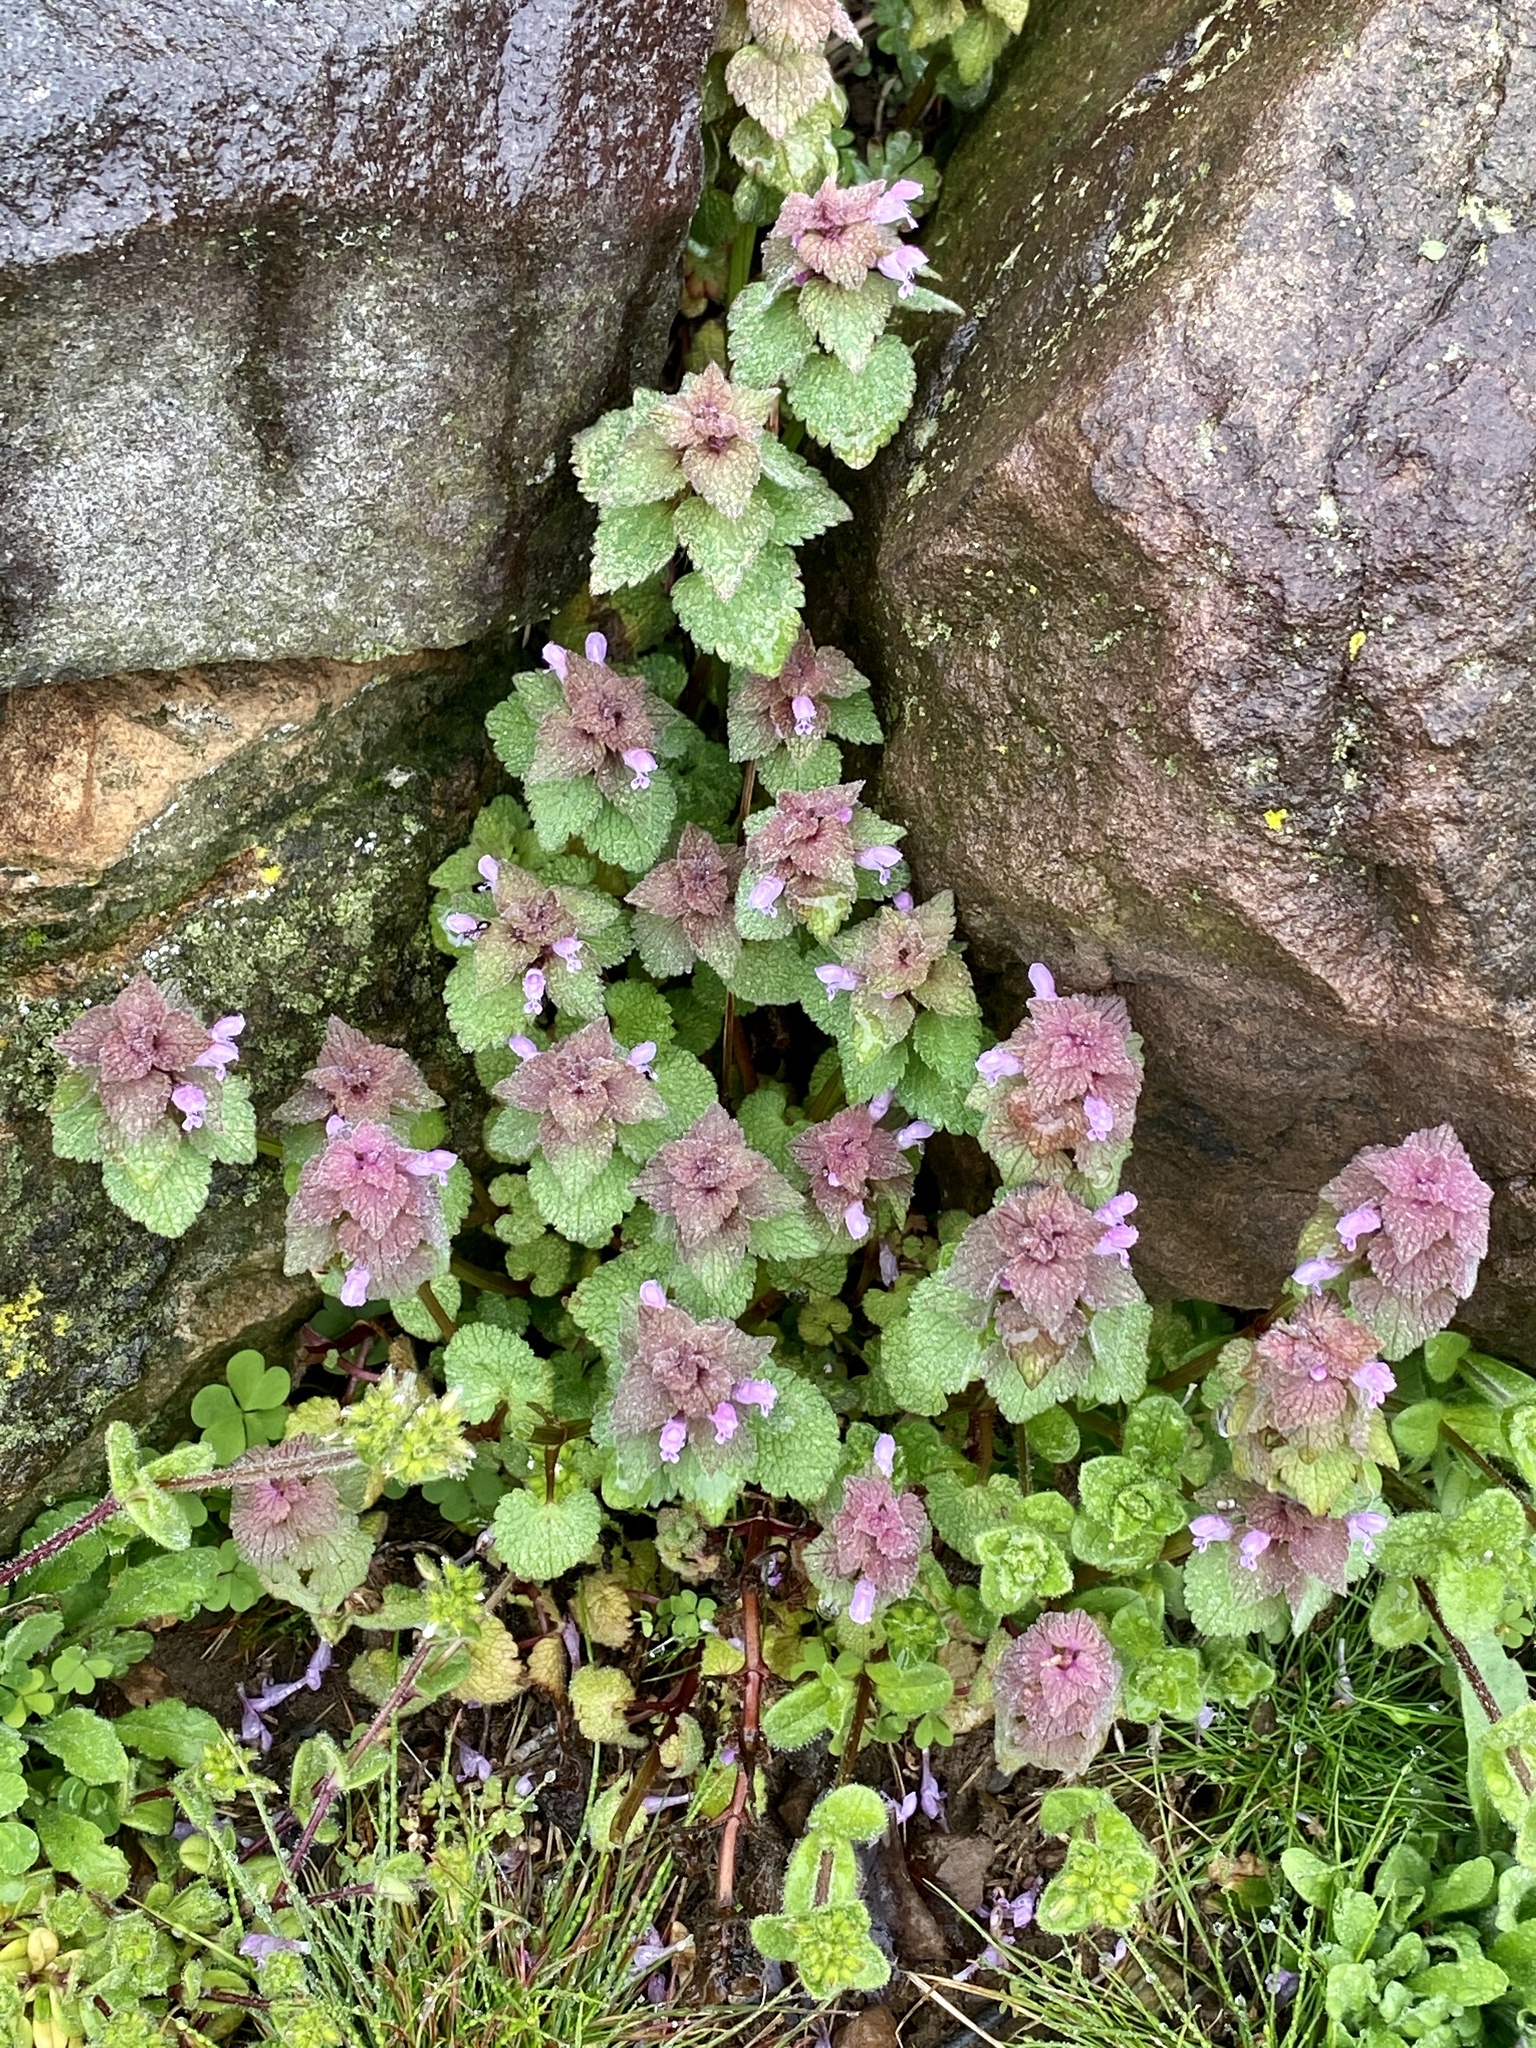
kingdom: Plantae
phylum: Tracheophyta
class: Magnoliopsida
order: Lamiales
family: Lamiaceae
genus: Lamium
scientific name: Lamium purpureum
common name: Red dead-nettle
